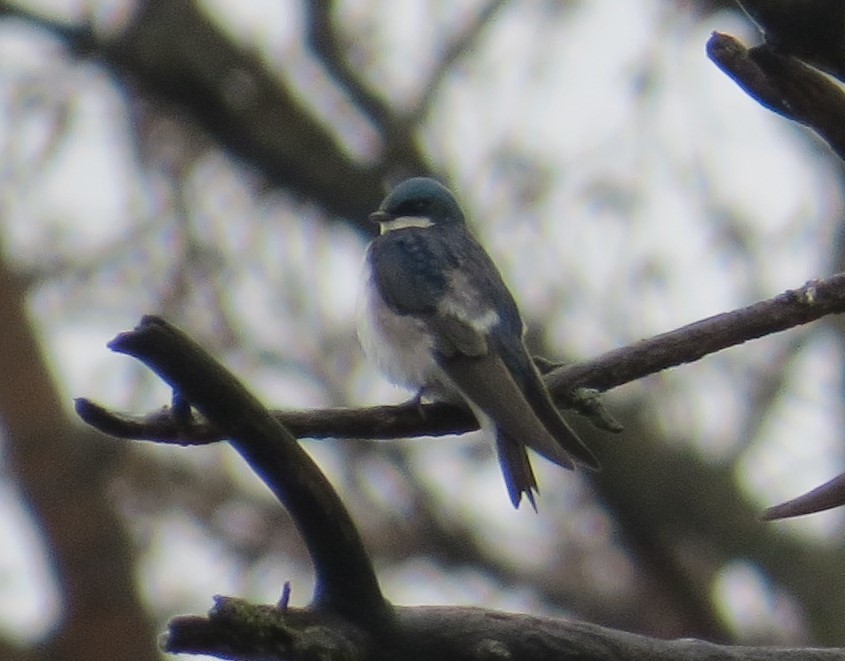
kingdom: Animalia
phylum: Chordata
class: Aves
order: Passeriformes
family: Hirundinidae
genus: Tachycineta
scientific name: Tachycineta bicolor
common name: Tree swallow
